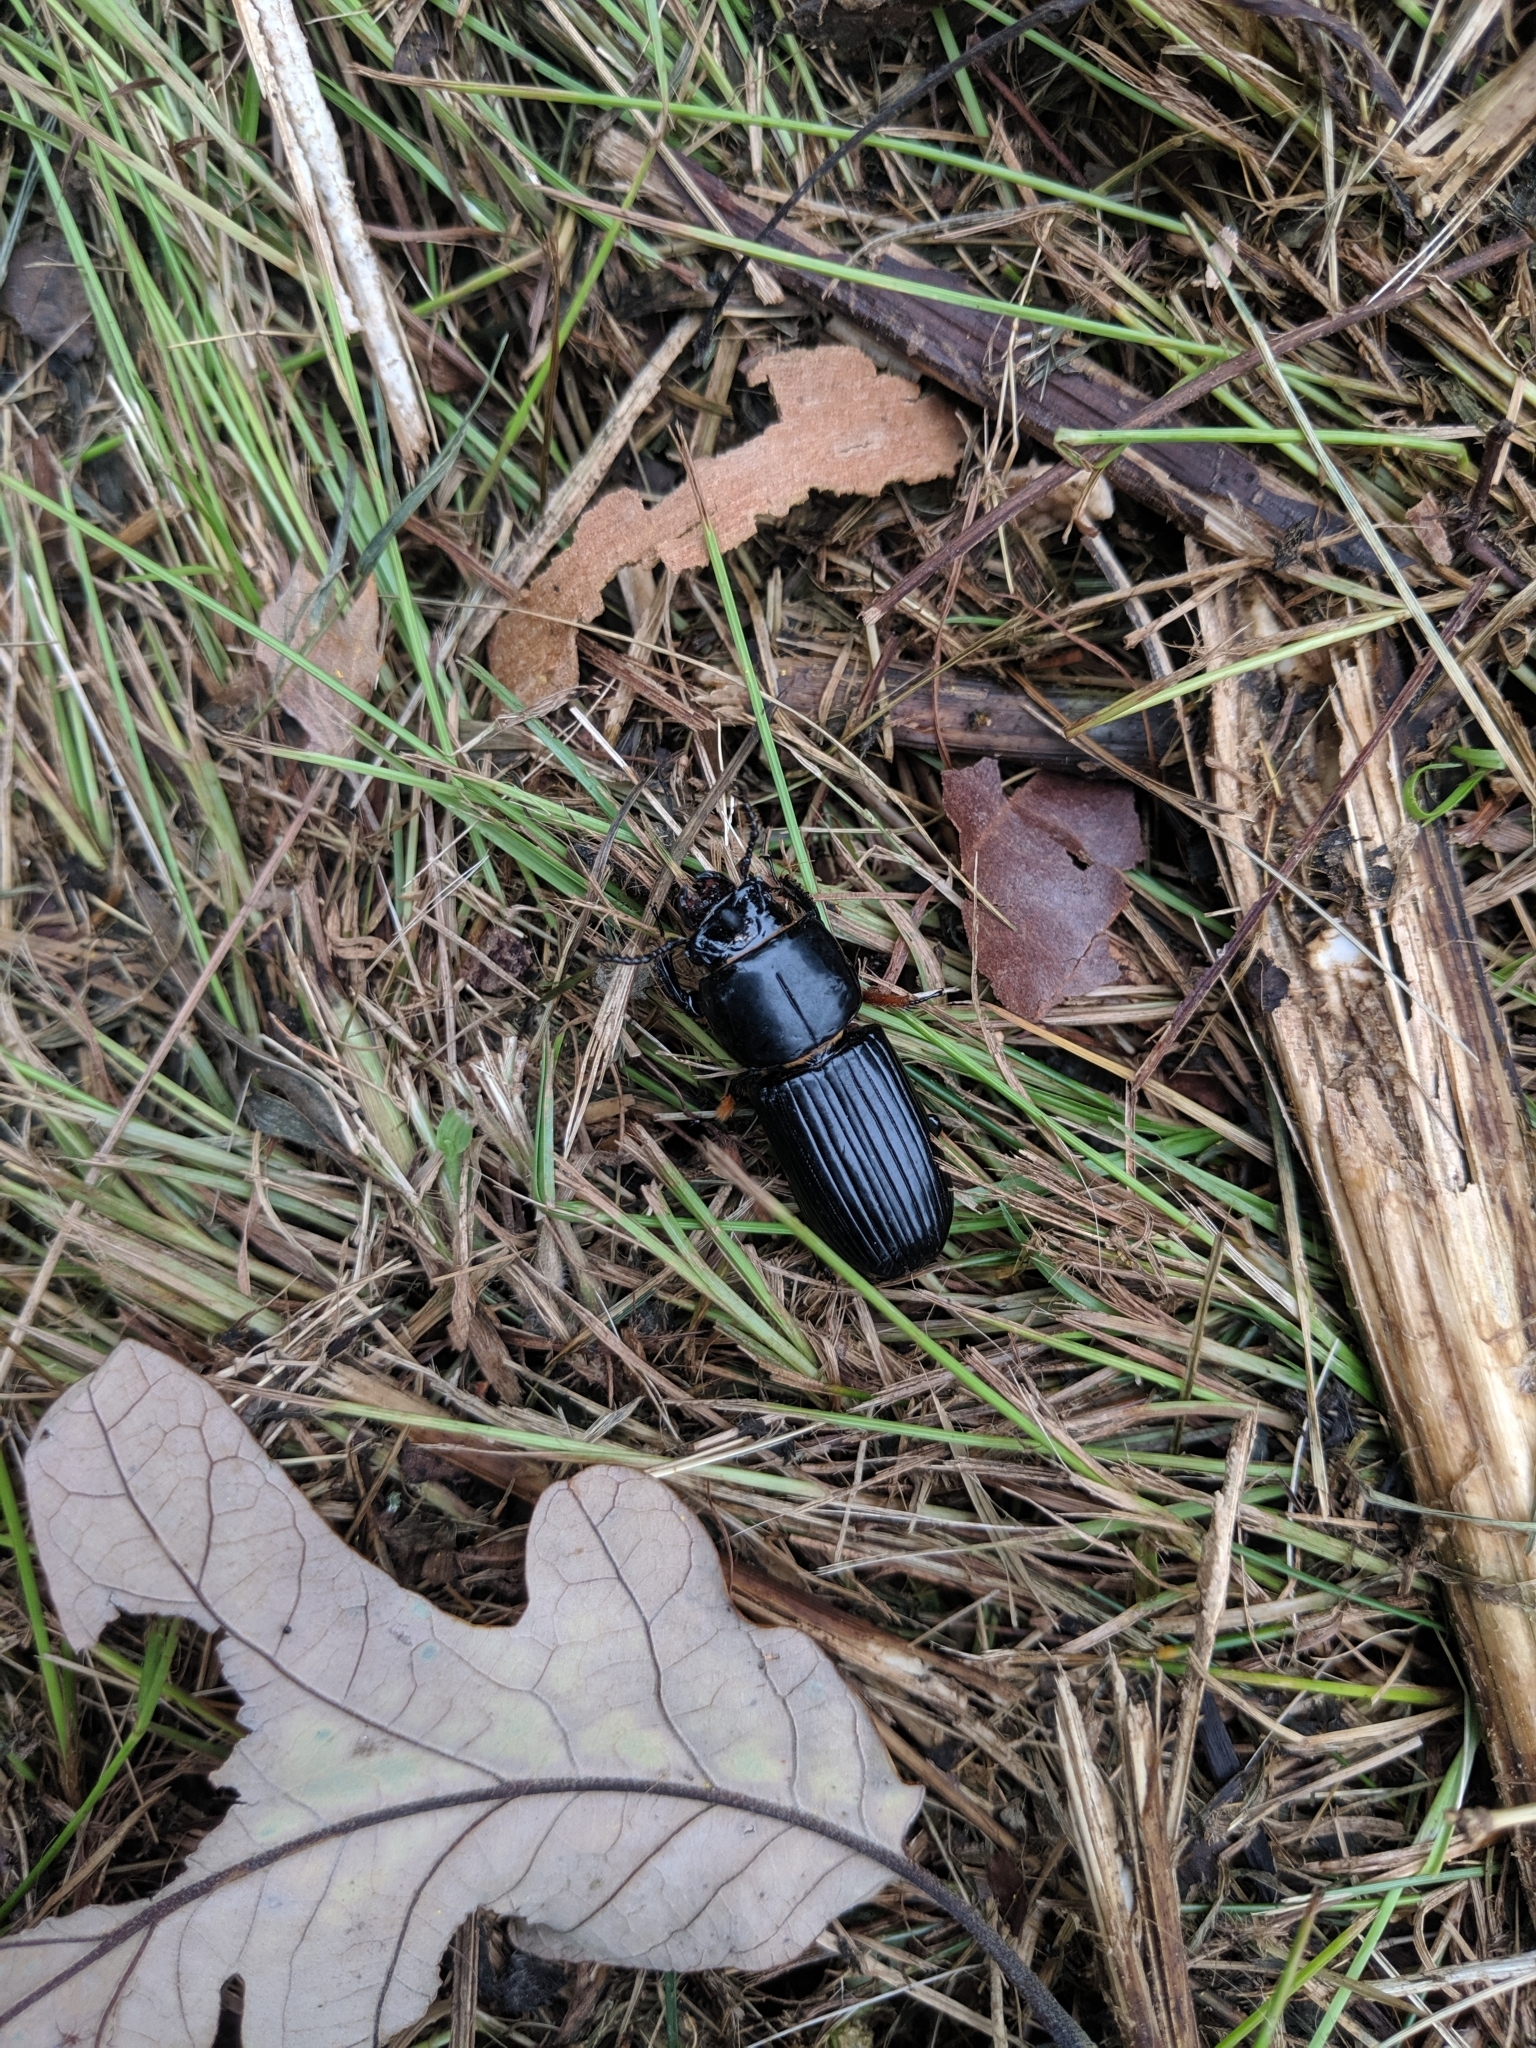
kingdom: Animalia
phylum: Arthropoda
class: Insecta
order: Coleoptera
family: Passalidae
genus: Odontotaenius
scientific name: Odontotaenius disjunctus
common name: Patent leather beetle
